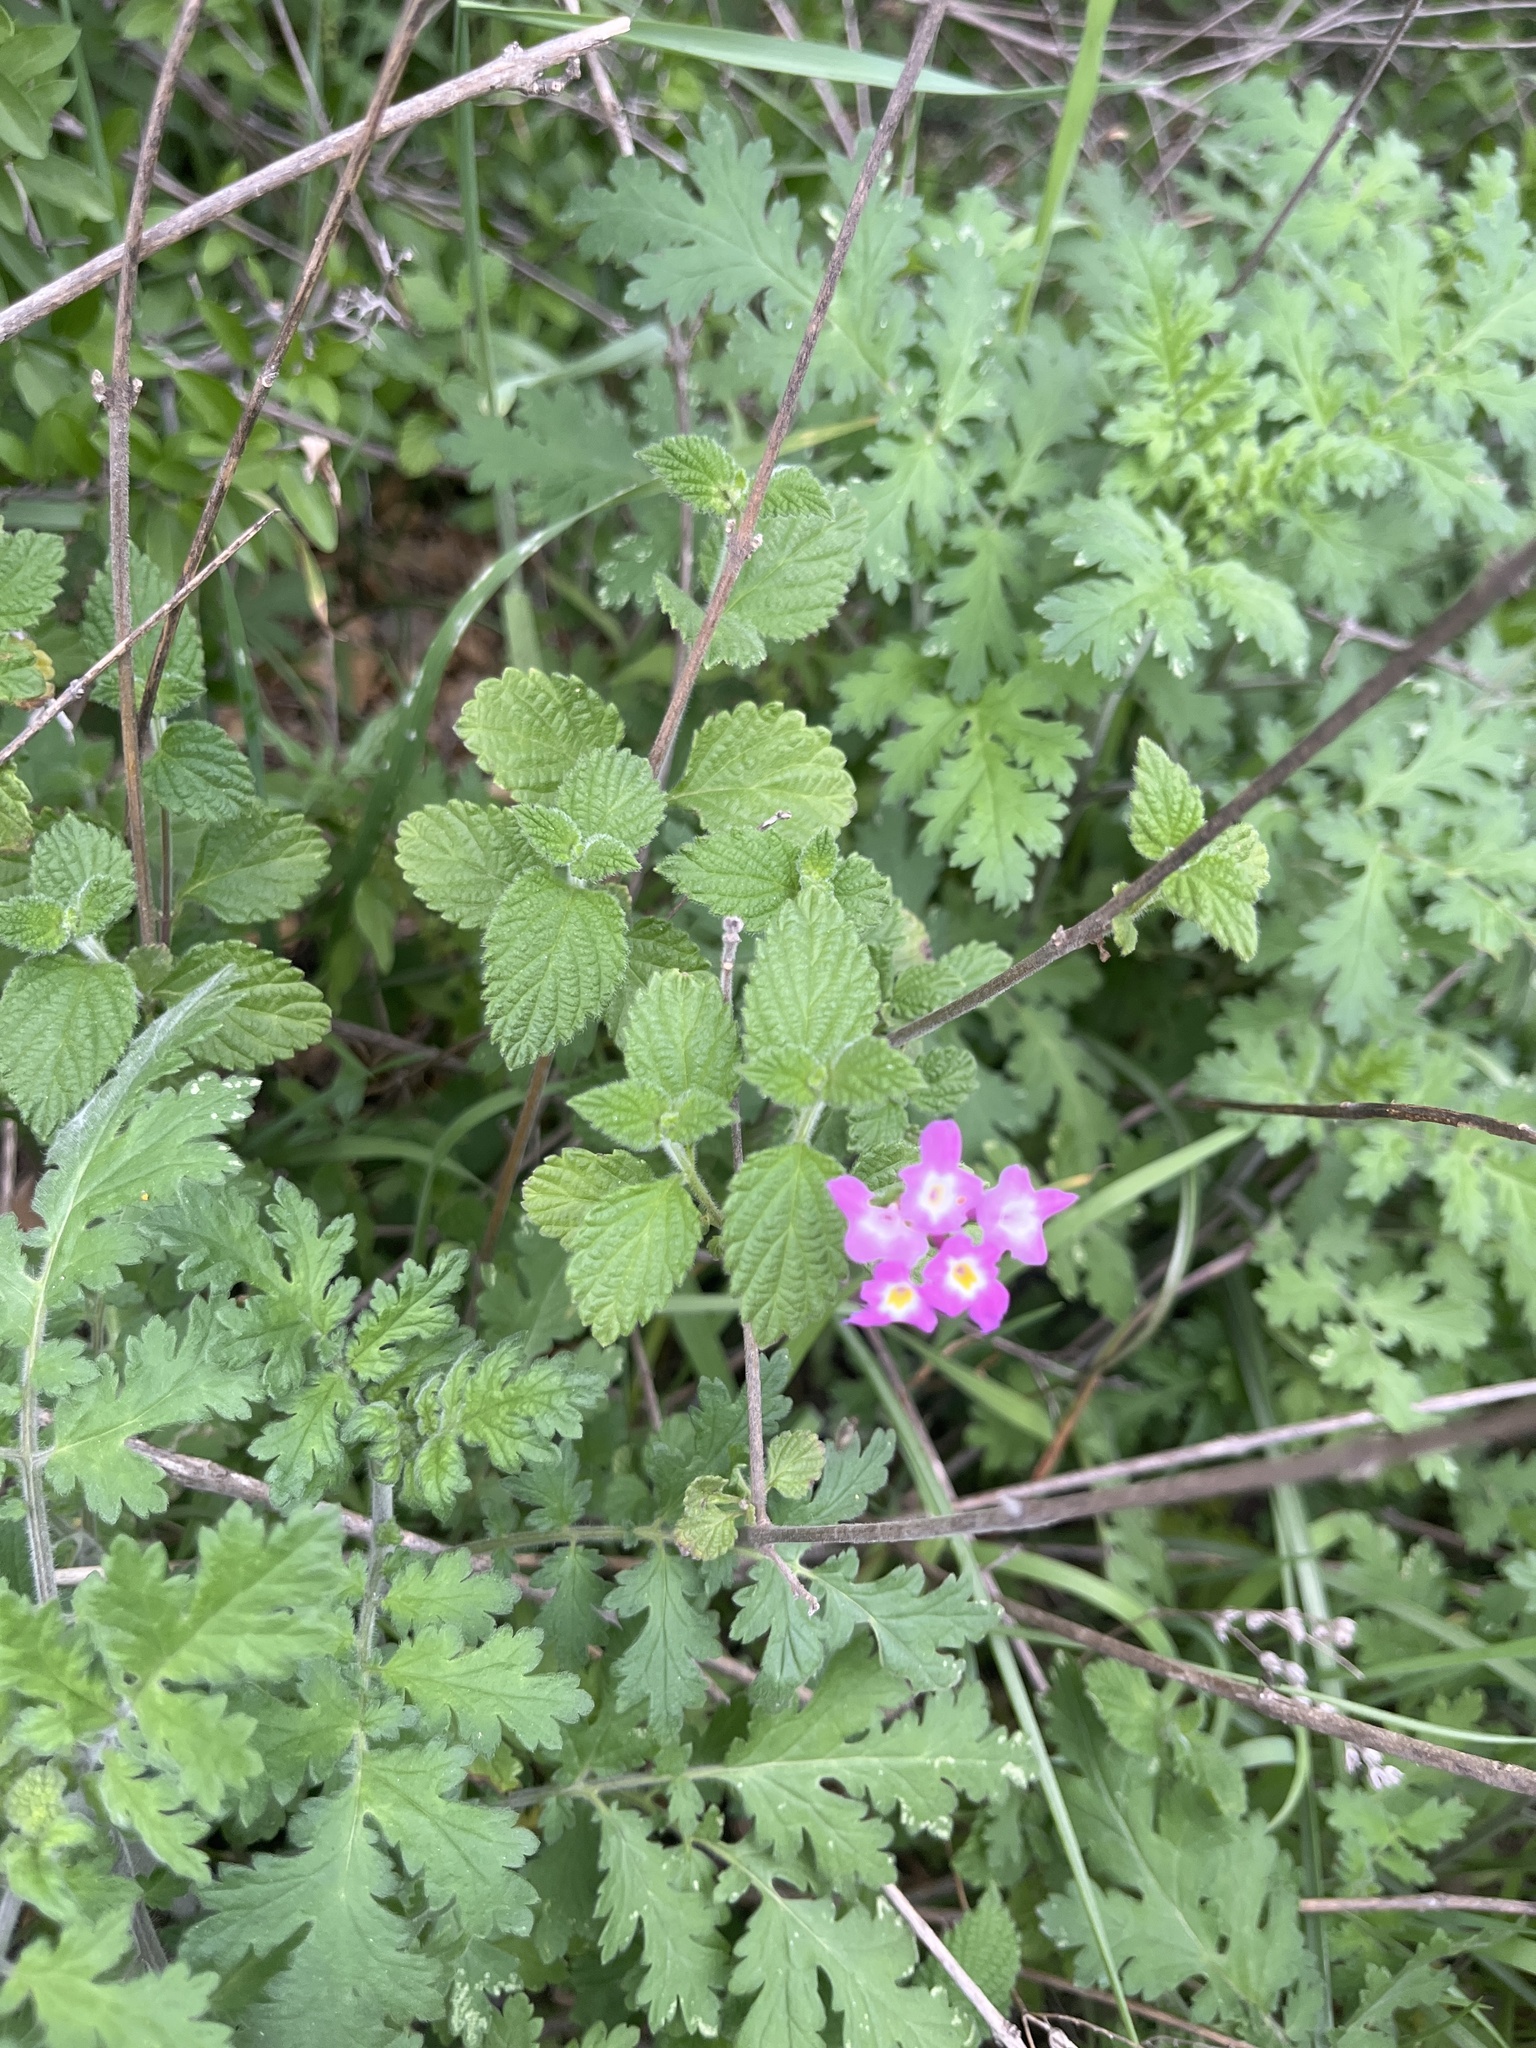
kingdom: Plantae
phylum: Tracheophyta
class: Magnoliopsida
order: Lamiales
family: Verbenaceae
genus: Lantana
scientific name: Lantana montevidensis
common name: Trailing shrubverbena
